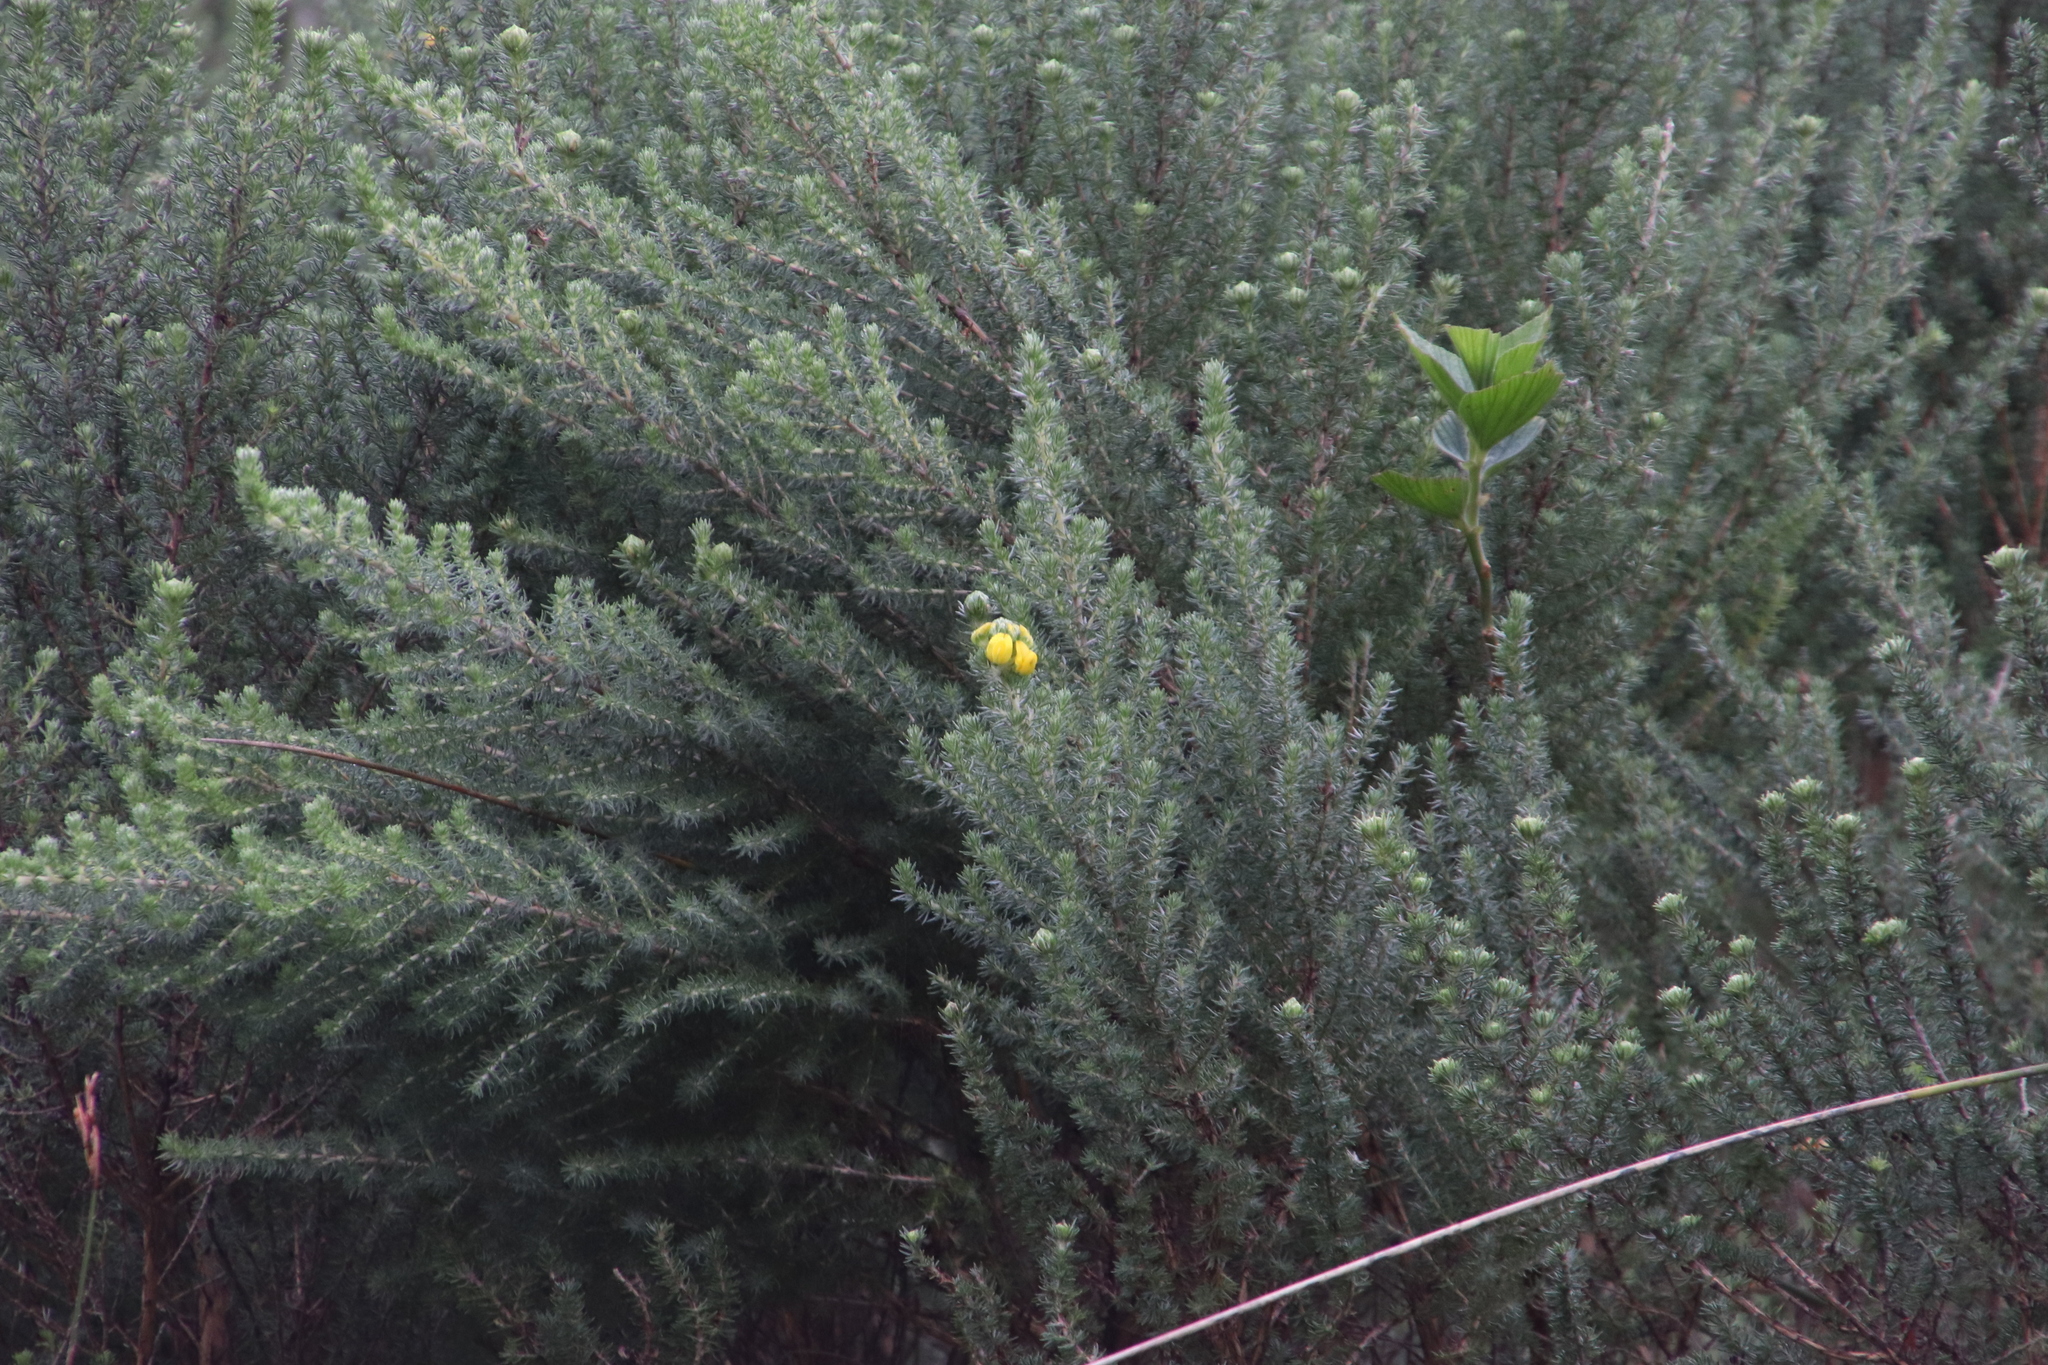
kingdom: Plantae
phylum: Tracheophyta
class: Magnoliopsida
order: Fabales
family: Fabaceae
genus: Aspalathus
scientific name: Aspalathus chenopoda
